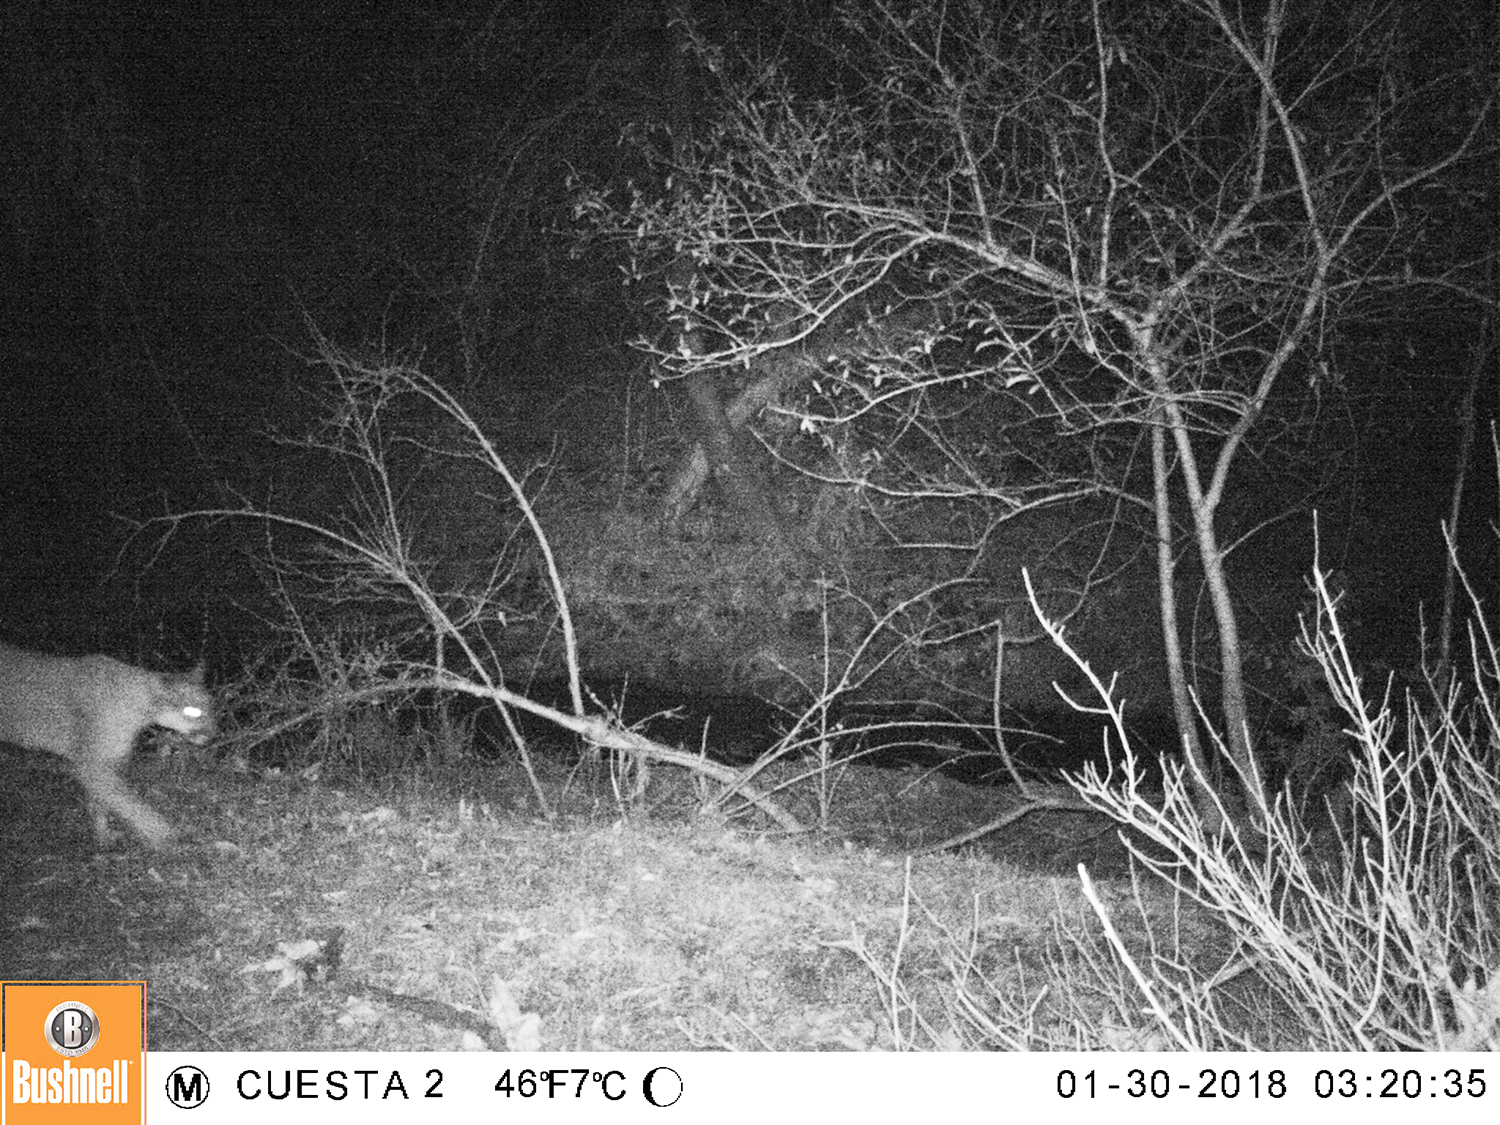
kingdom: Animalia
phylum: Chordata
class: Mammalia
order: Carnivora
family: Felidae
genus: Puma
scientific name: Puma concolor
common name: Puma
